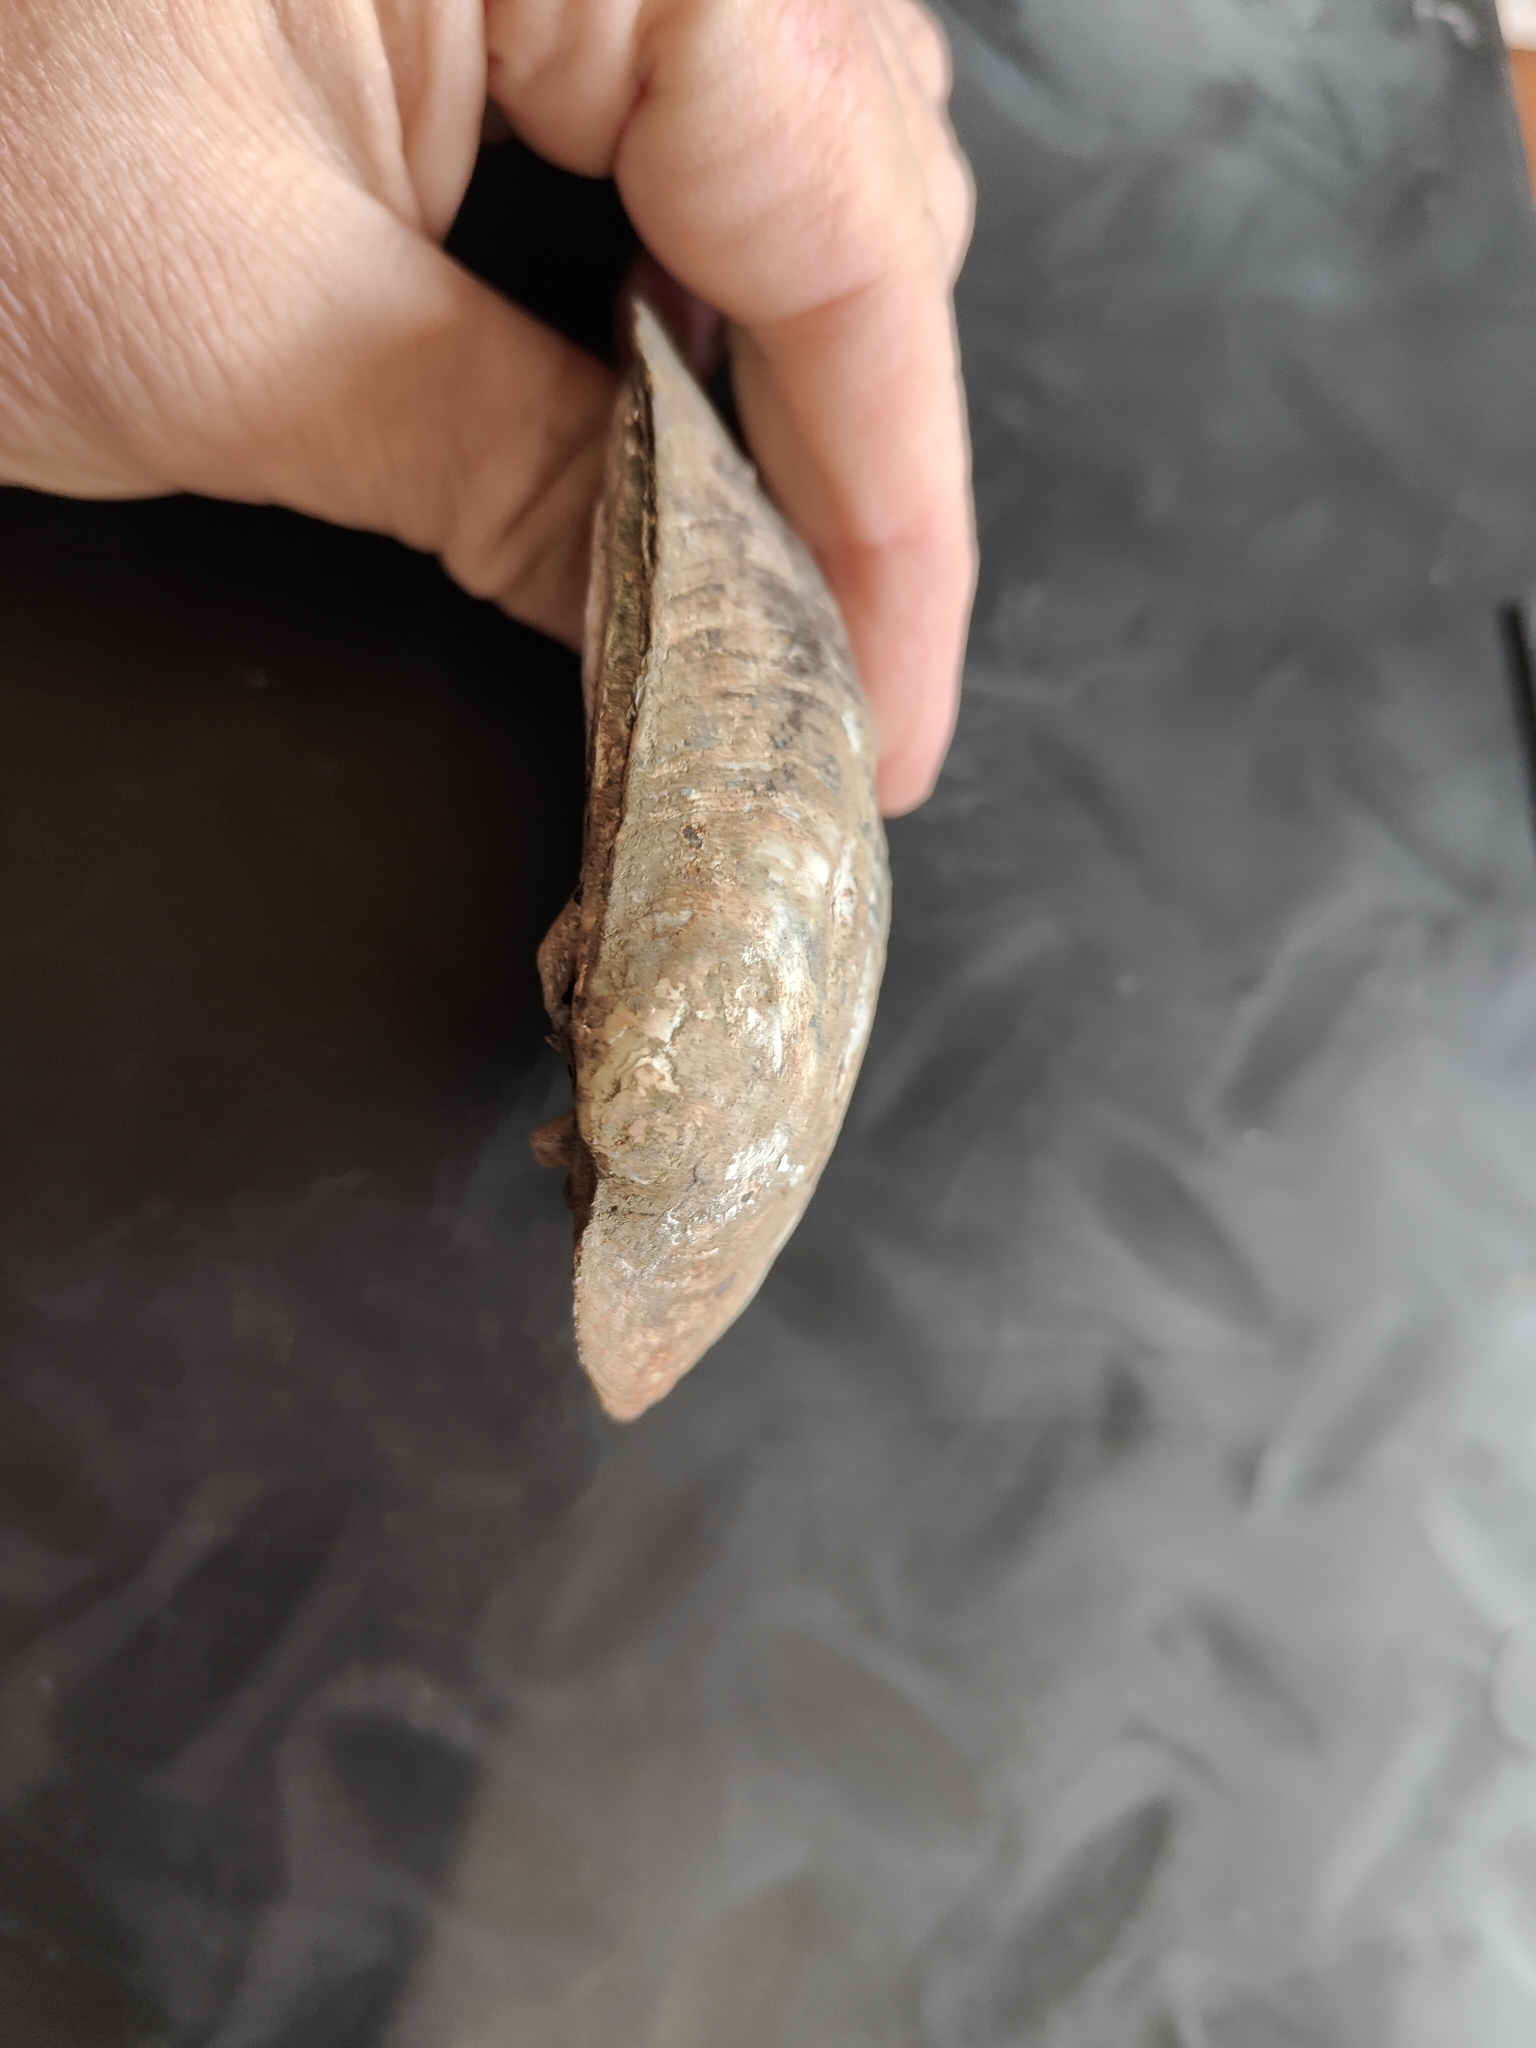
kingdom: Animalia
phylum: Mollusca
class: Bivalvia
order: Unionida
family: Unionidae
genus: Amblema
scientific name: Amblema plicata
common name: Threeridge
